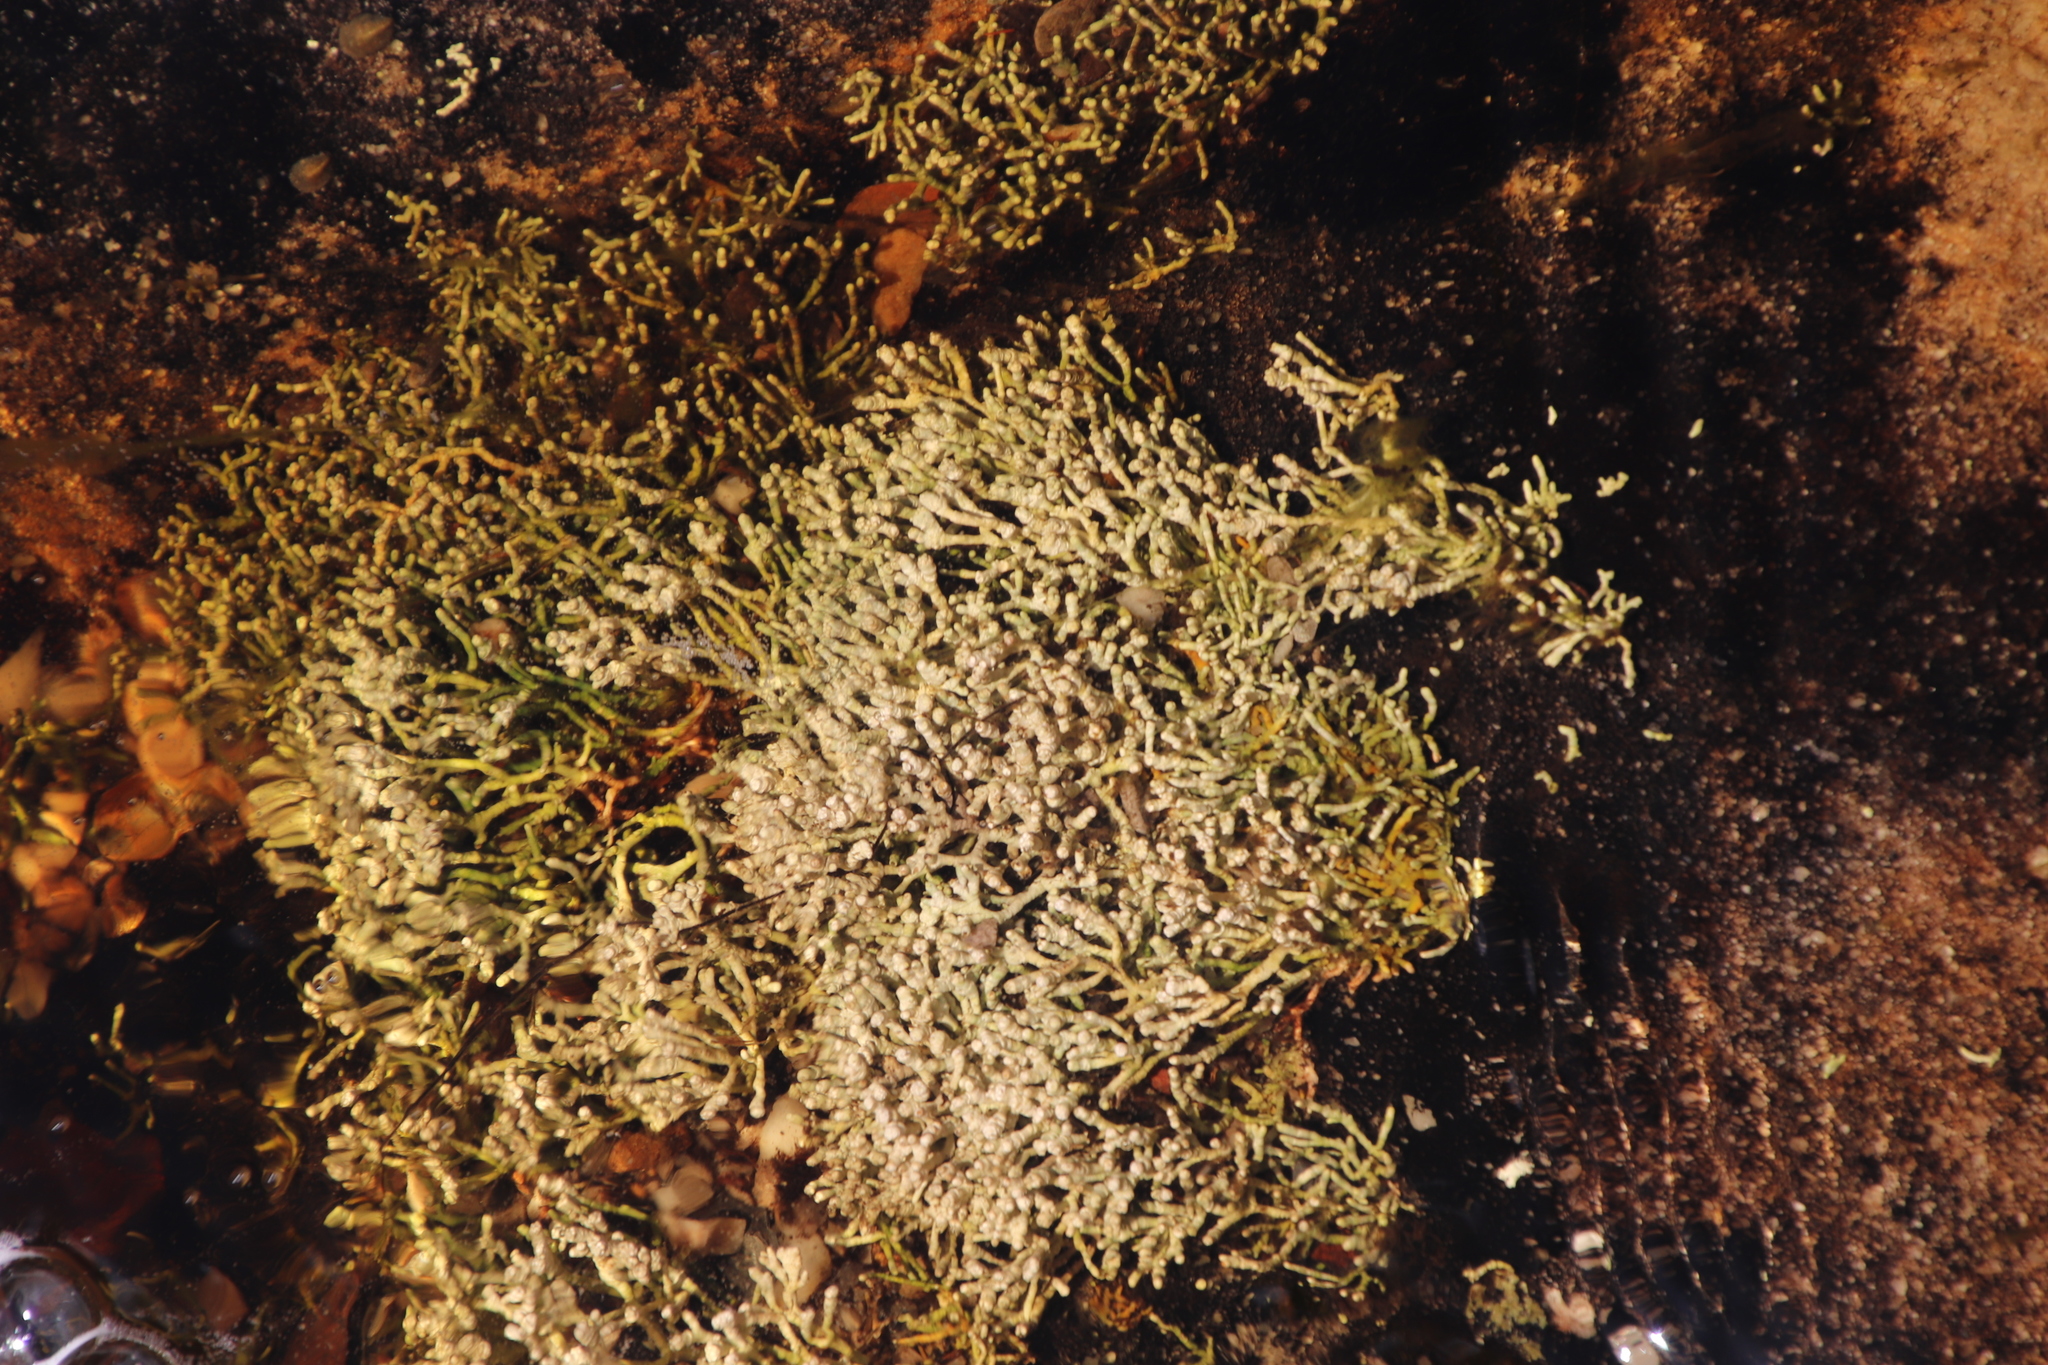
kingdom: Fungi
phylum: Ascomycota
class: Lecanoromycetes
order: Pertusariales
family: Icmadophilaceae
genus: Siphula
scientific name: Siphula verrucigera
